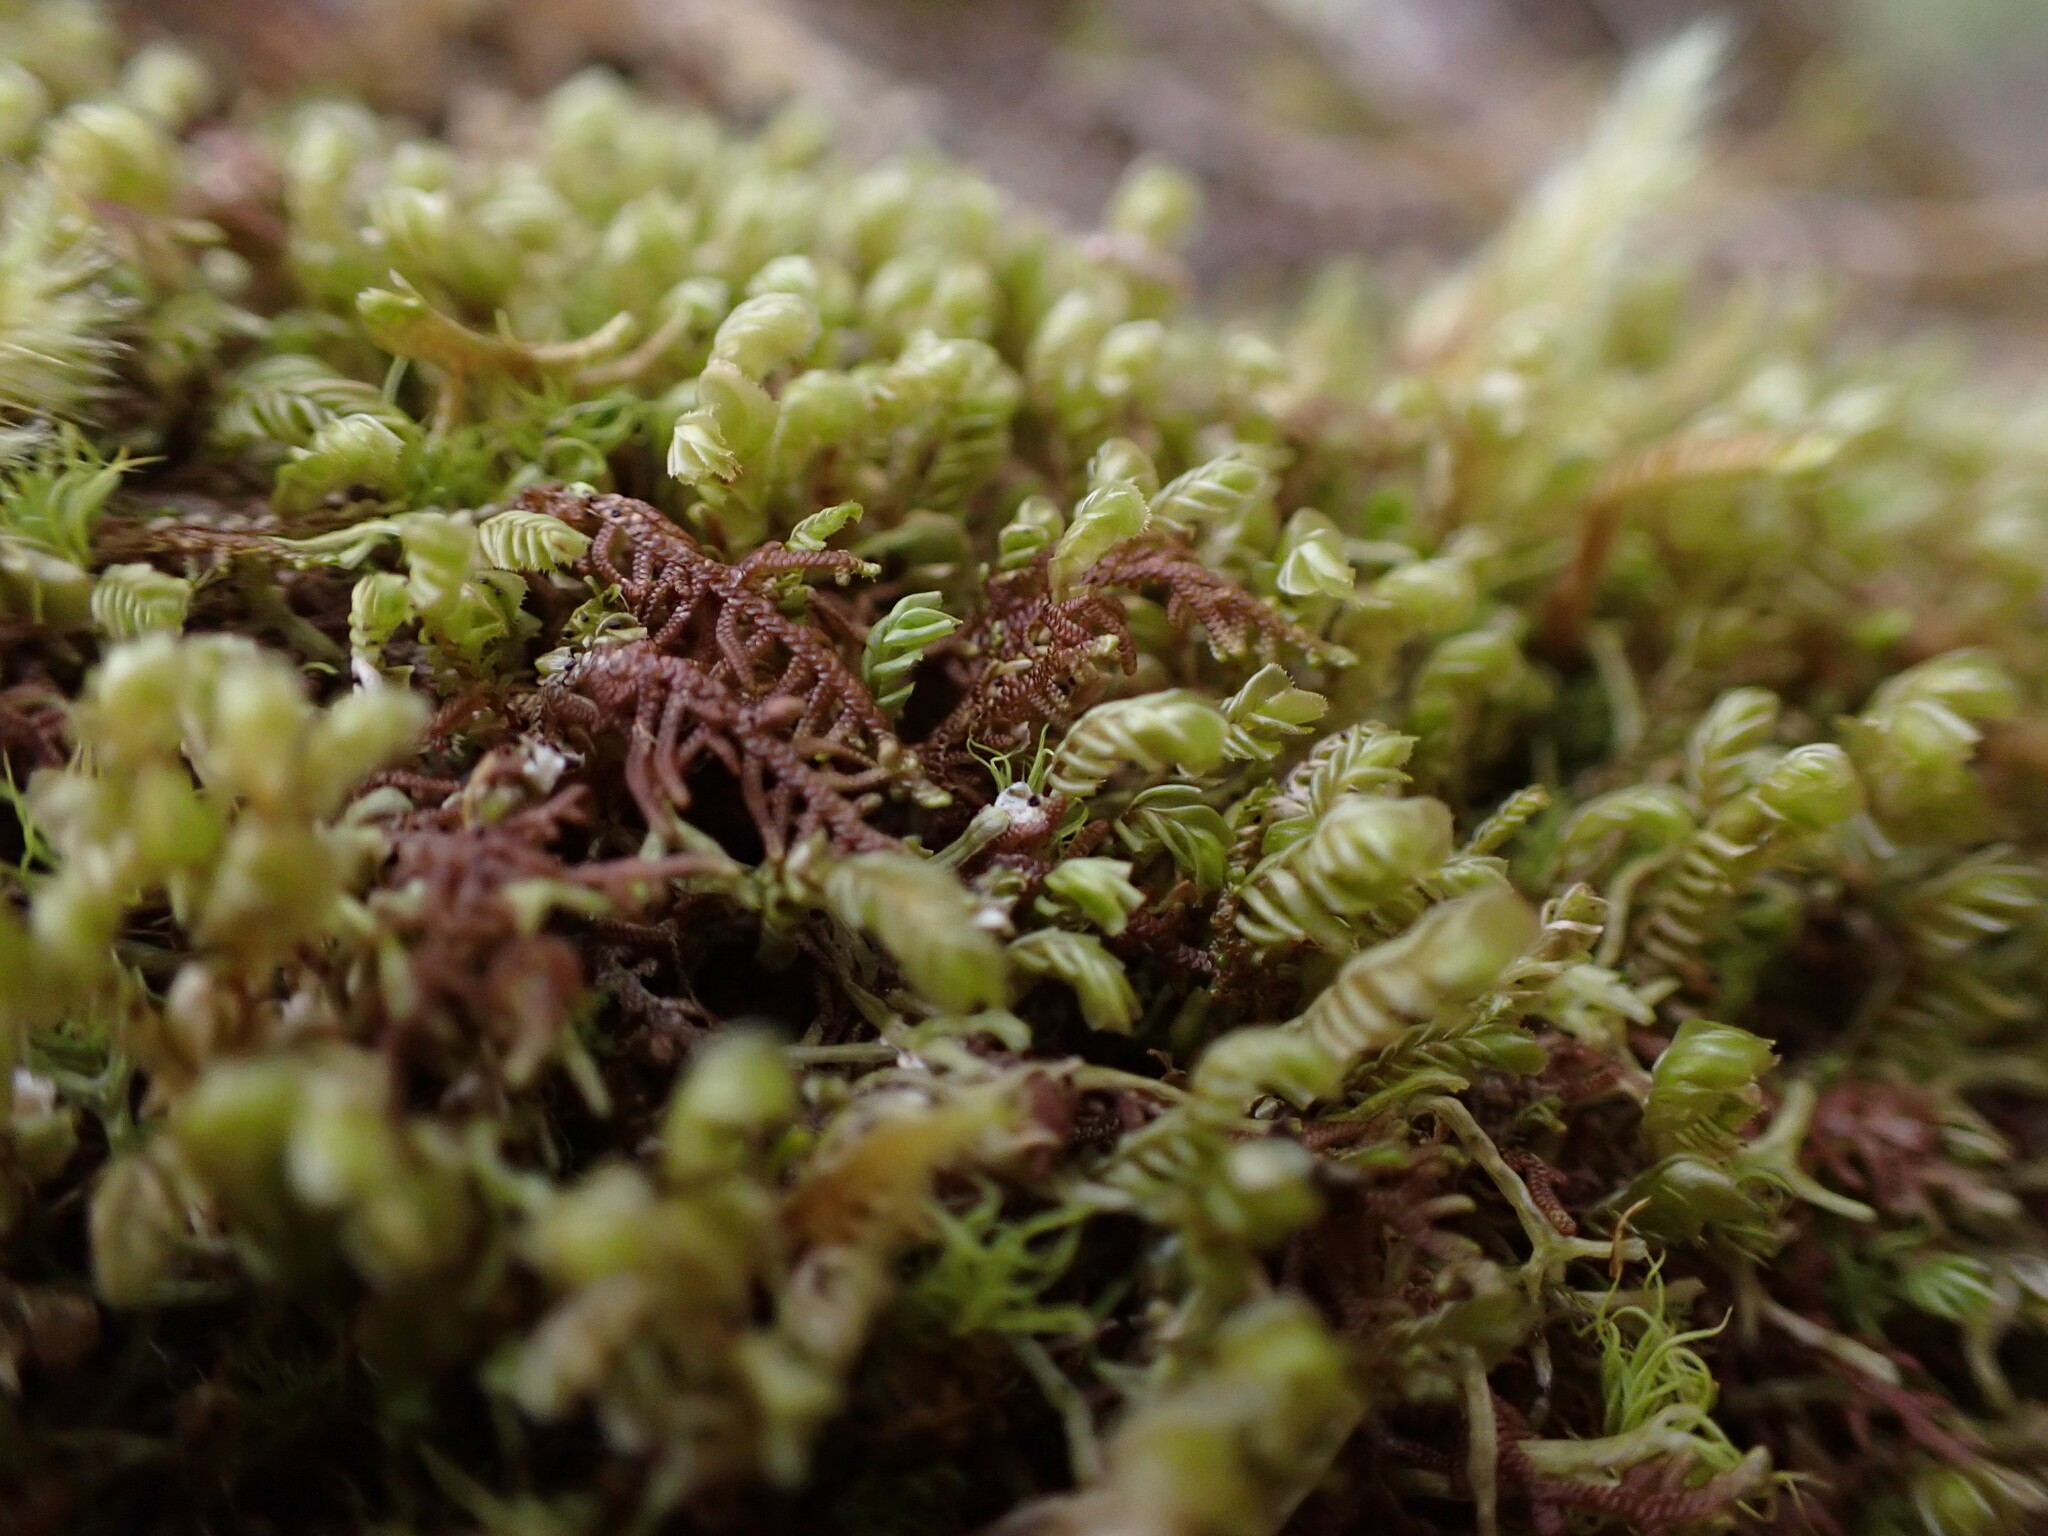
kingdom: Plantae
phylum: Marchantiophyta
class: Jungermanniopsida
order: Jungermanniales
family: Plagiochilaceae
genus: Plagiochila
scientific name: Plagiochila porelloides
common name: Lesser featherwort
